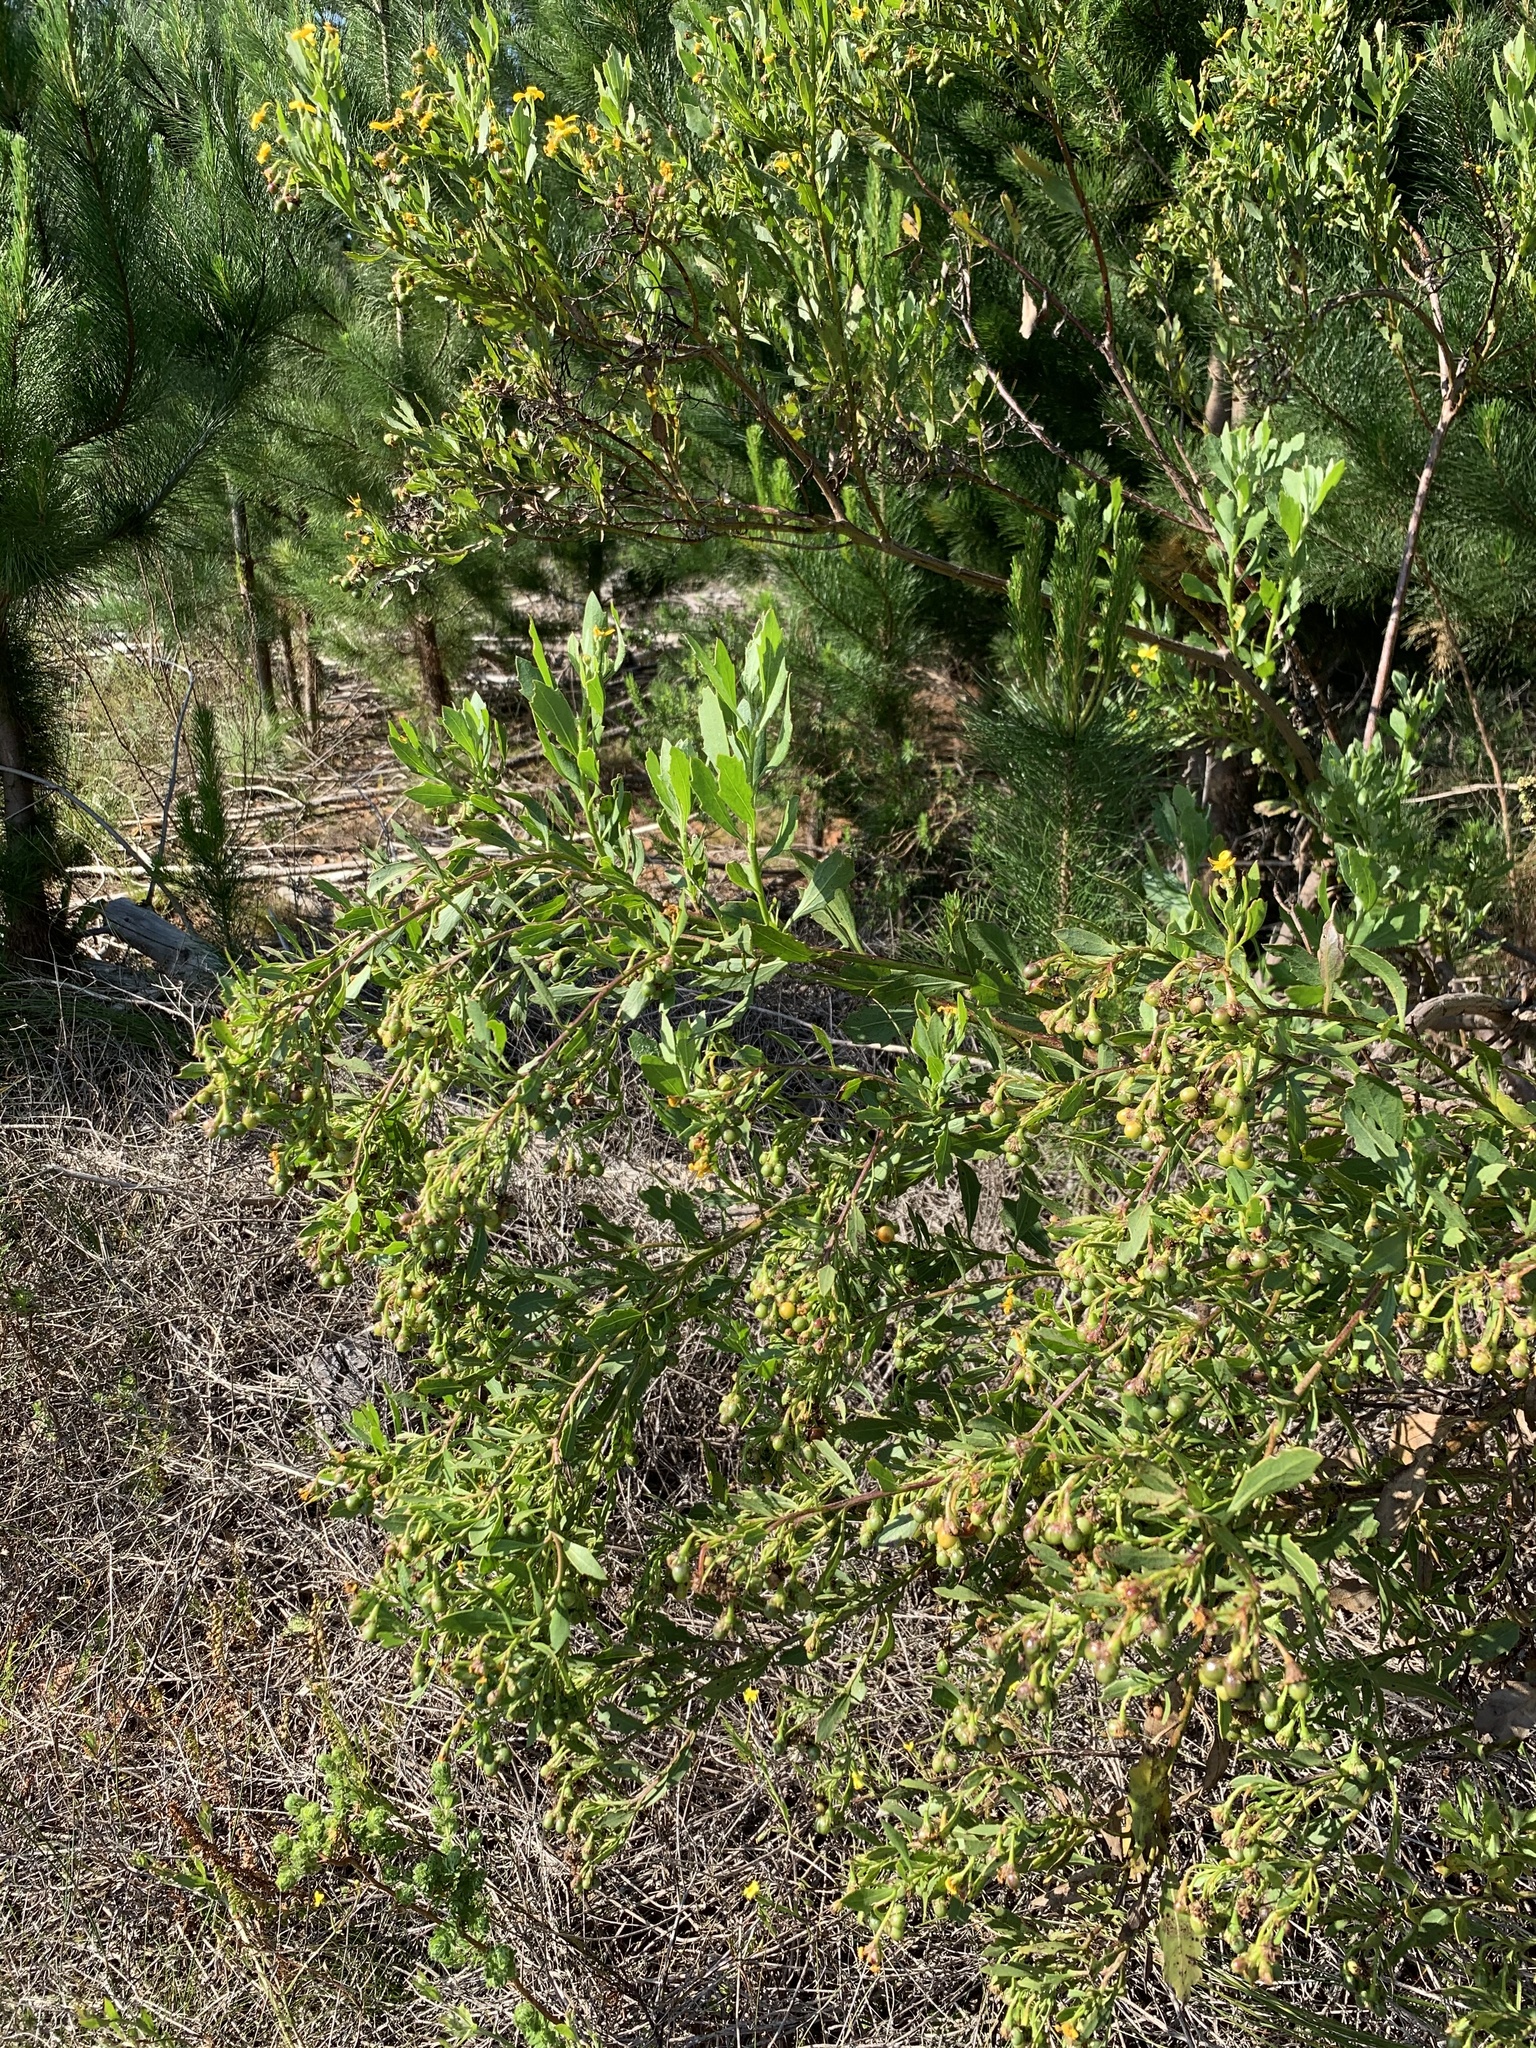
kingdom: Plantae
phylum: Tracheophyta
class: Magnoliopsida
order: Asterales
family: Asteraceae
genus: Osteospermum
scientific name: Osteospermum moniliferum
